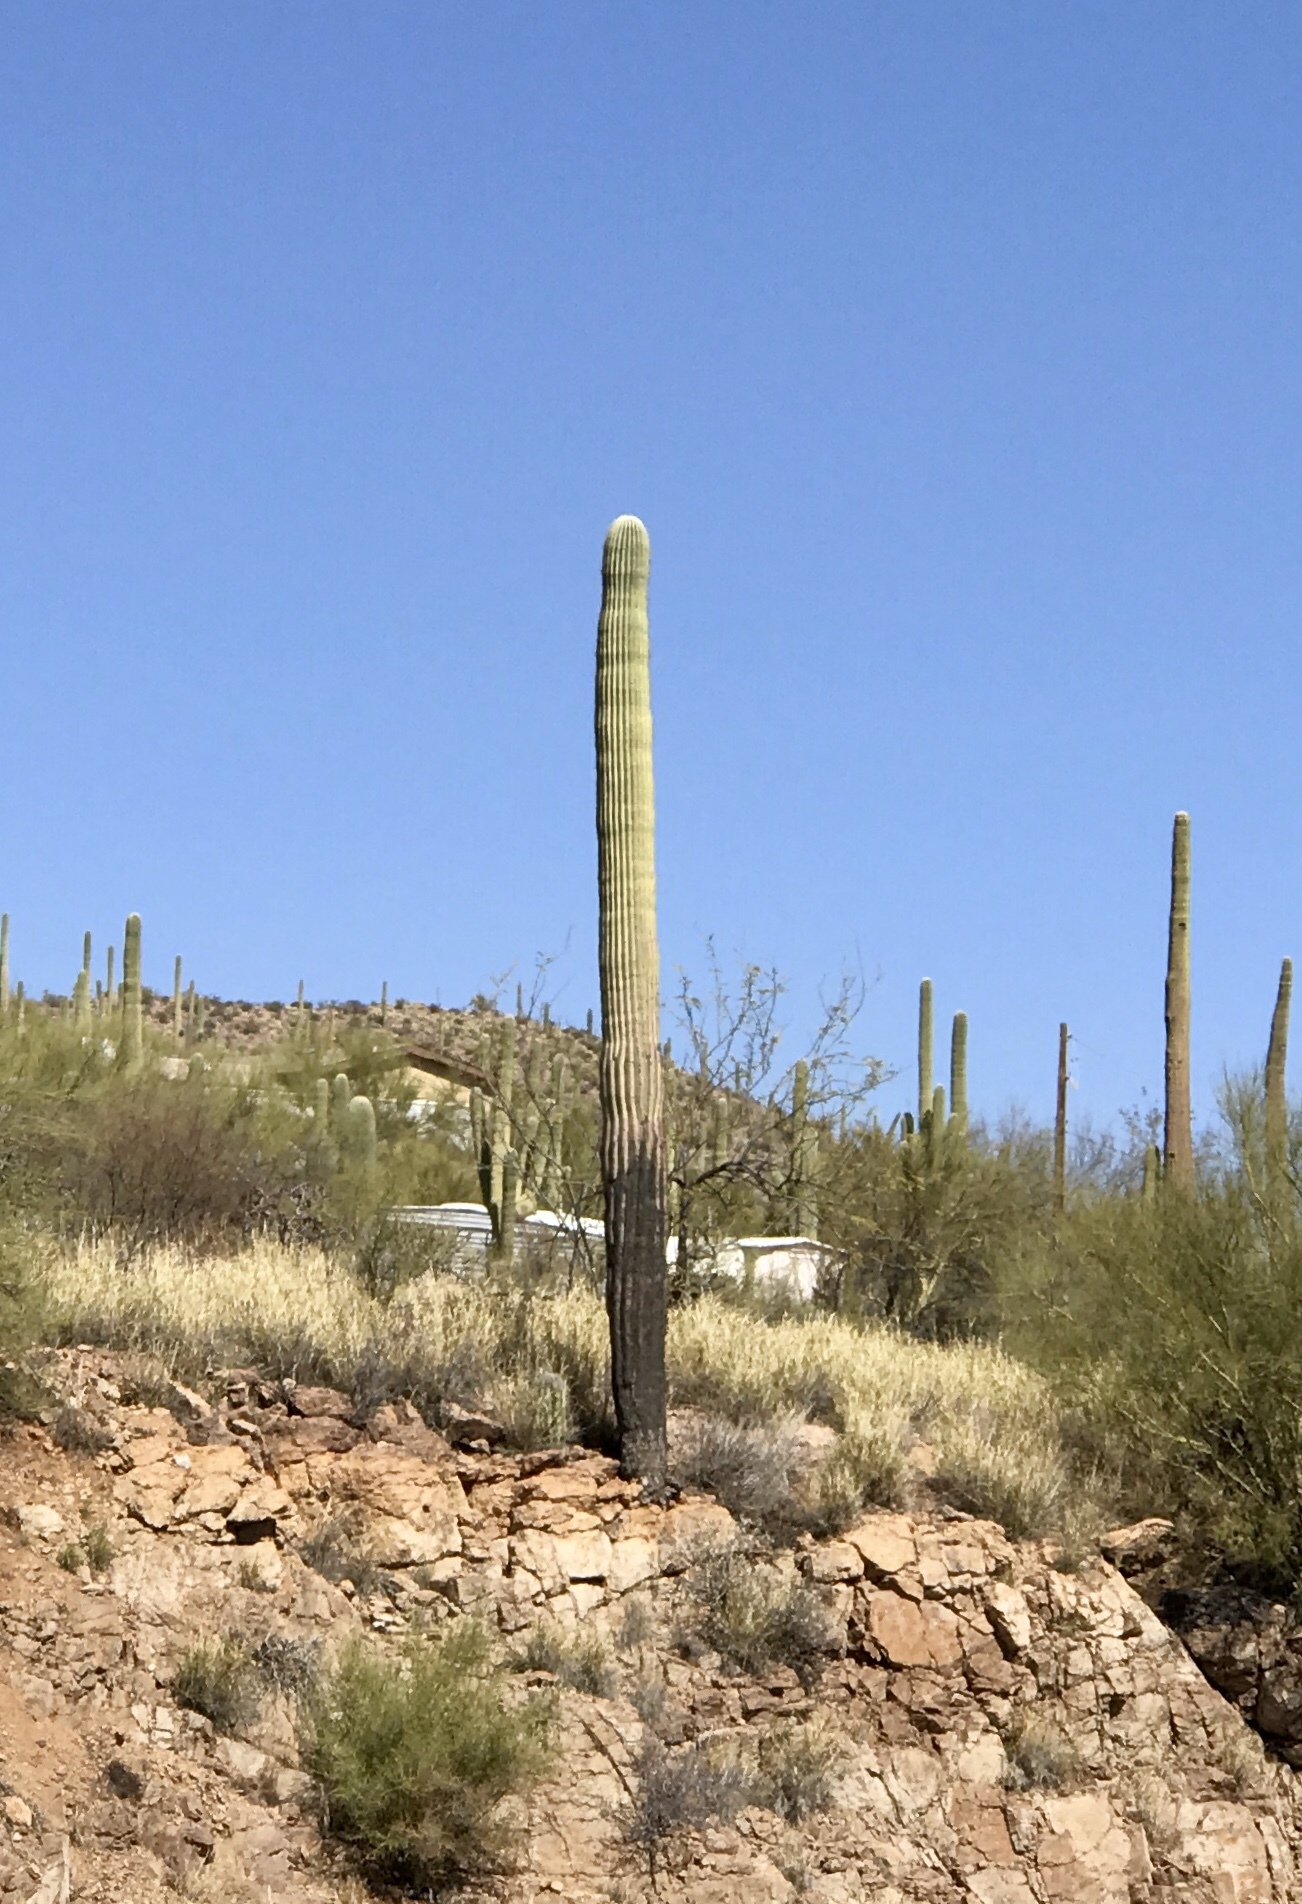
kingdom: Plantae
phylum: Tracheophyta
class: Magnoliopsida
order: Caryophyllales
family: Cactaceae
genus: Carnegiea
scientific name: Carnegiea gigantea
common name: Saguaro
